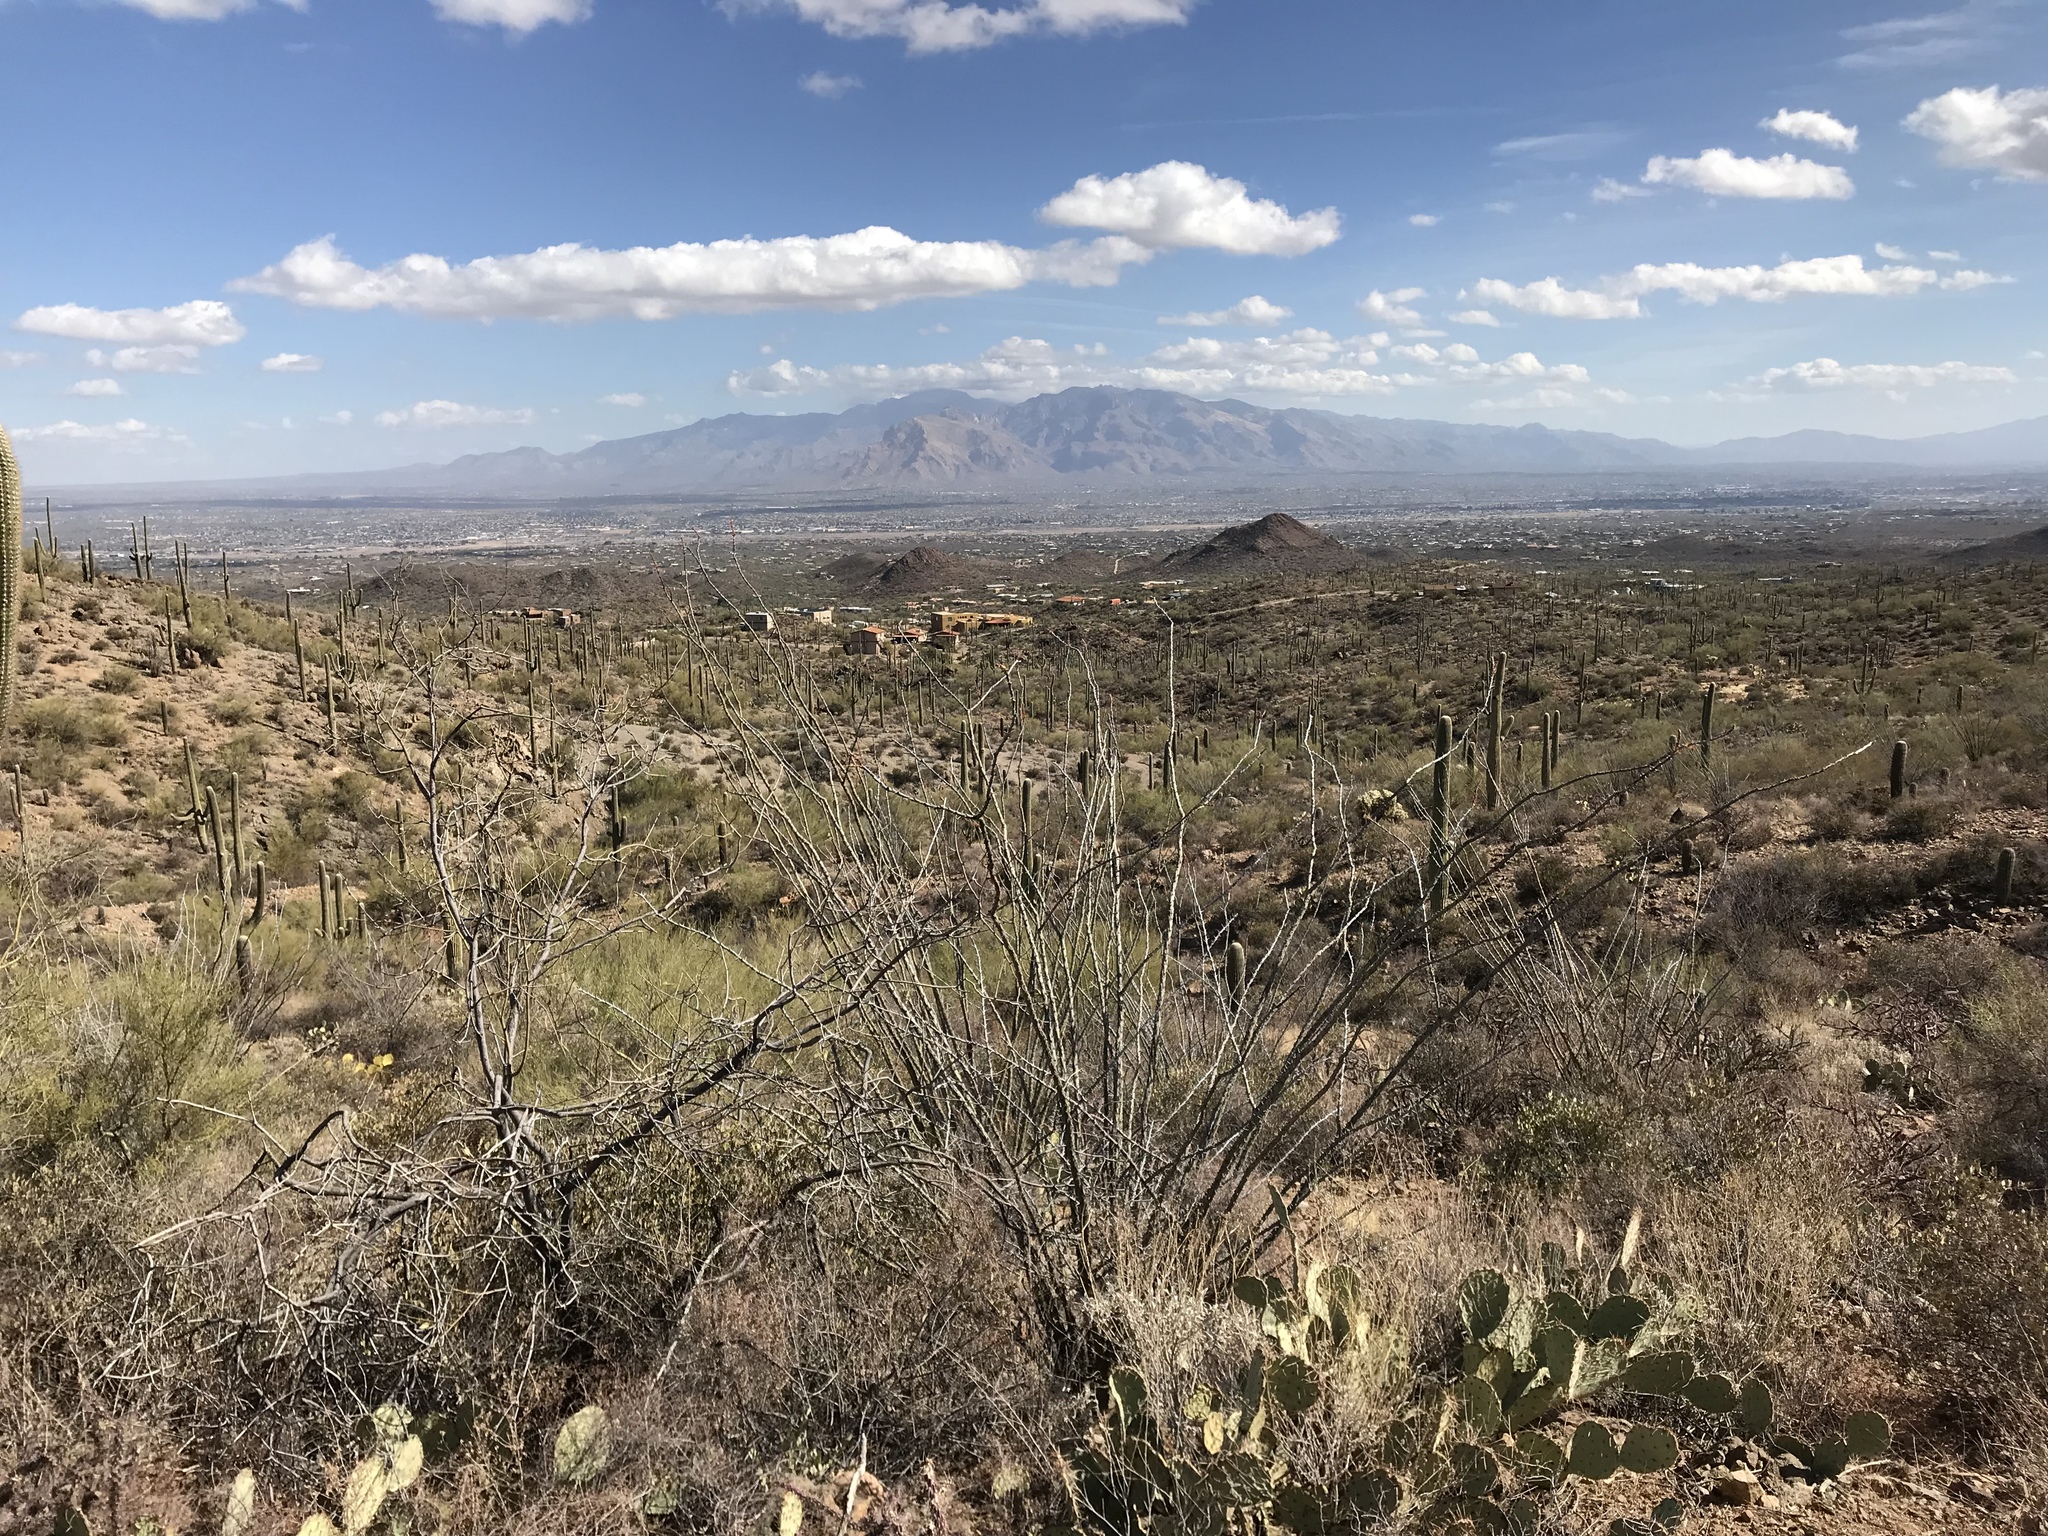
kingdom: Plantae
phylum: Tracheophyta
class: Magnoliopsida
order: Ericales
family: Fouquieriaceae
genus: Fouquieria
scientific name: Fouquieria splendens
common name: Vine-cactus
